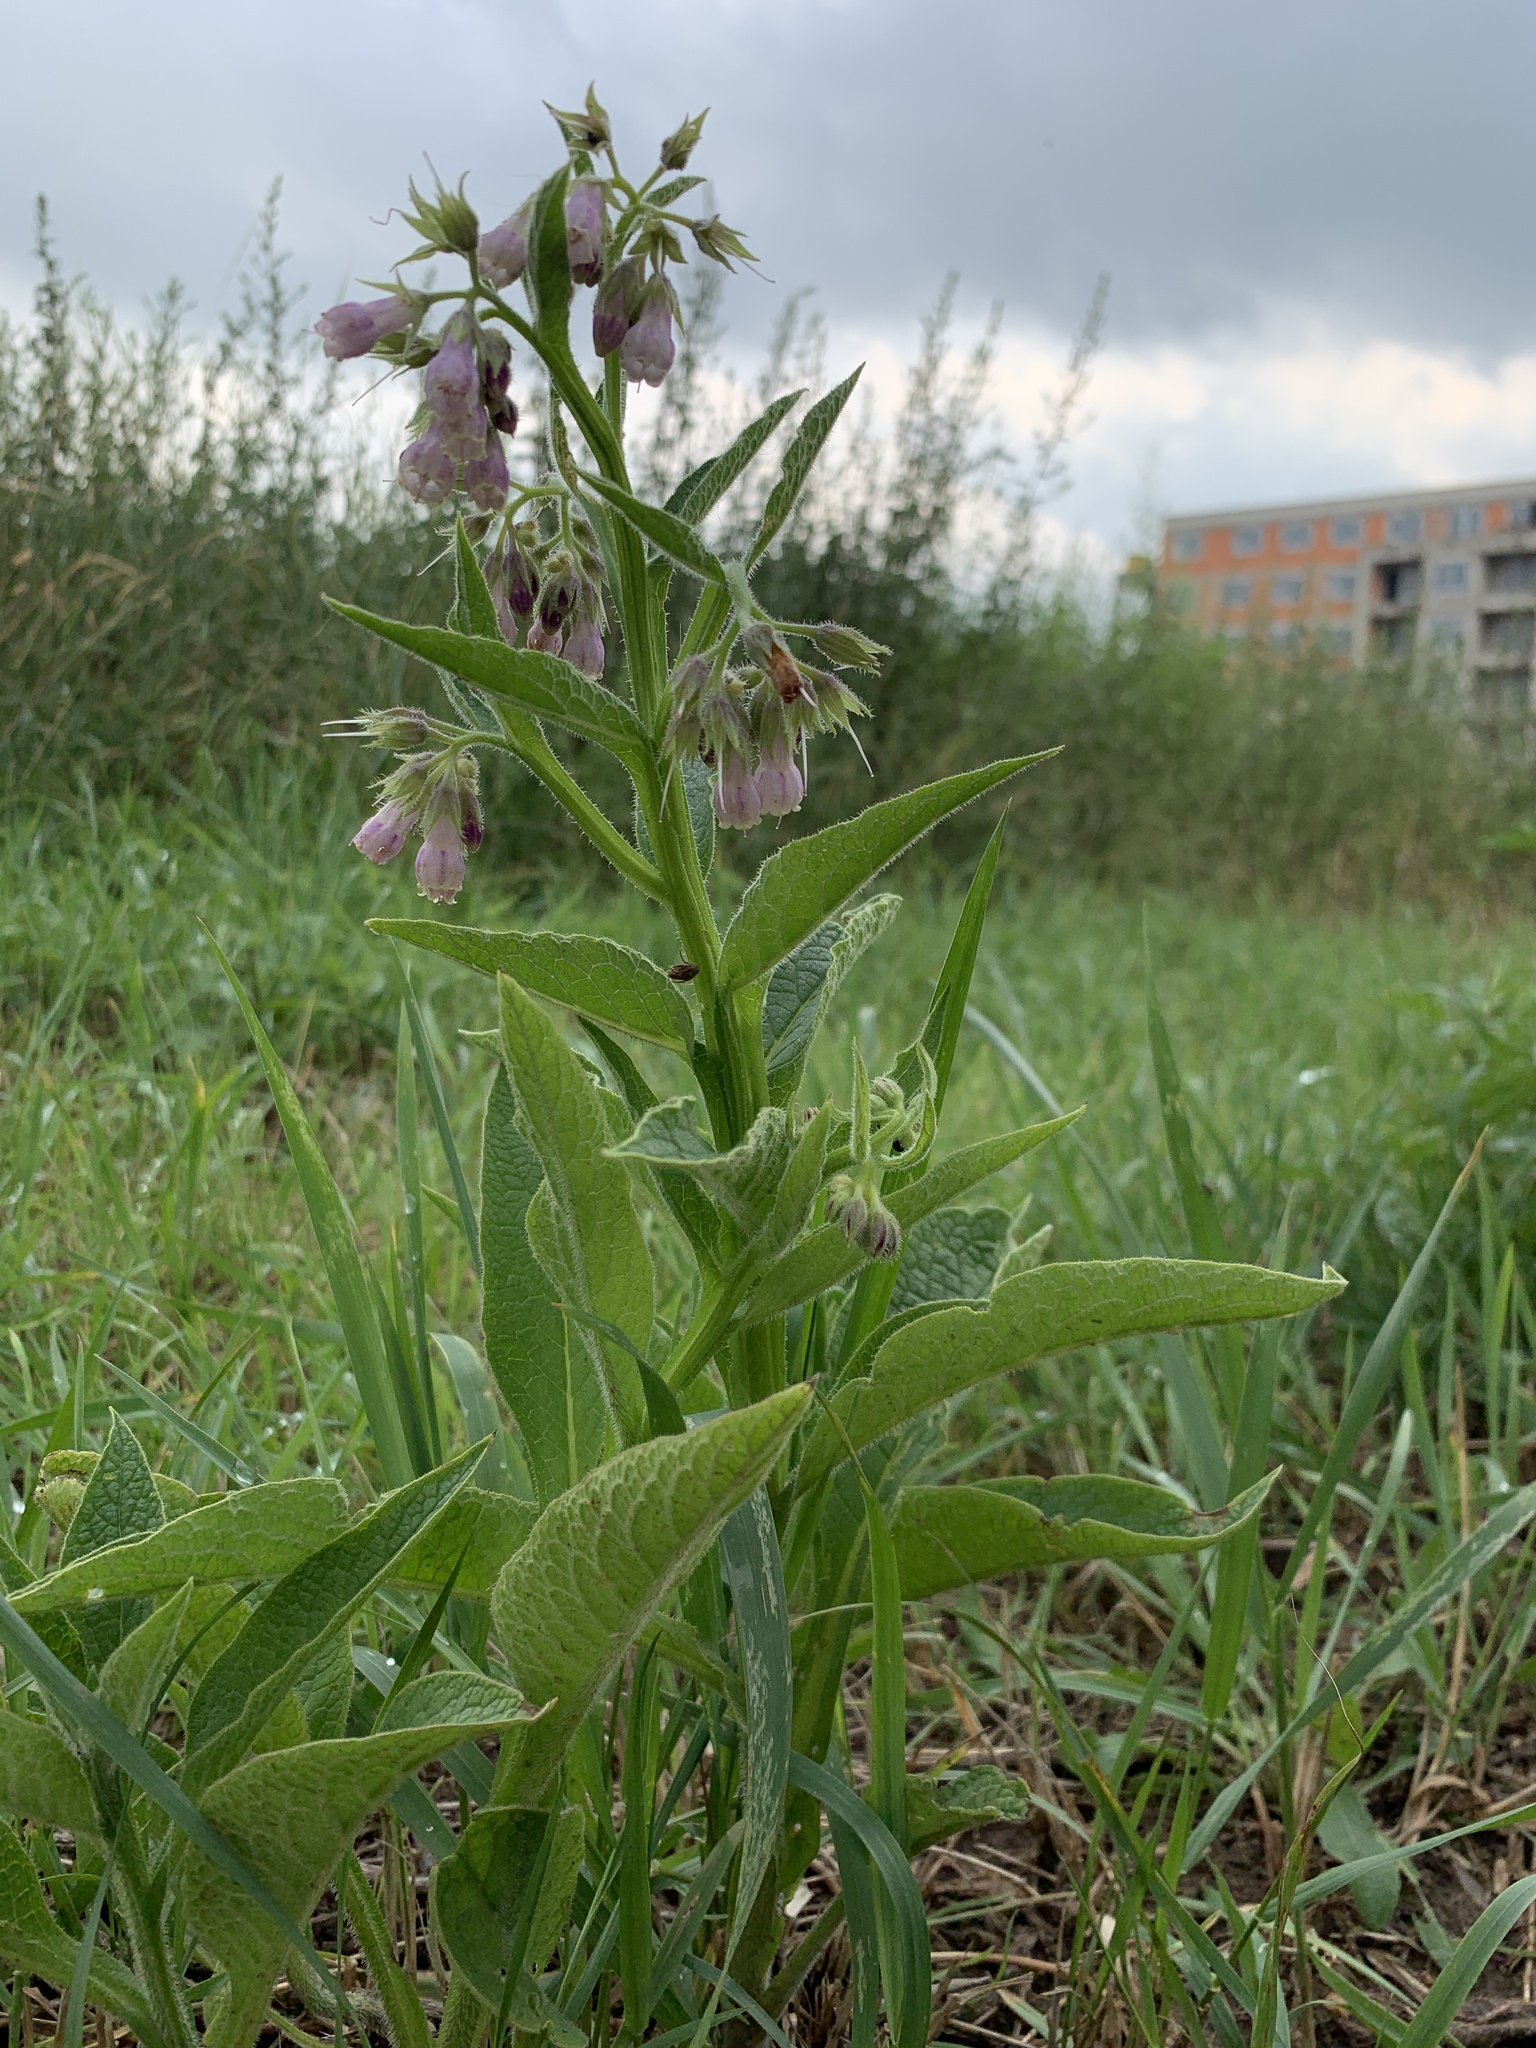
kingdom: Plantae
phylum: Tracheophyta
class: Magnoliopsida
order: Boraginales
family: Boraginaceae
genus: Symphytum
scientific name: Symphytum officinale
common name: Common comfrey
